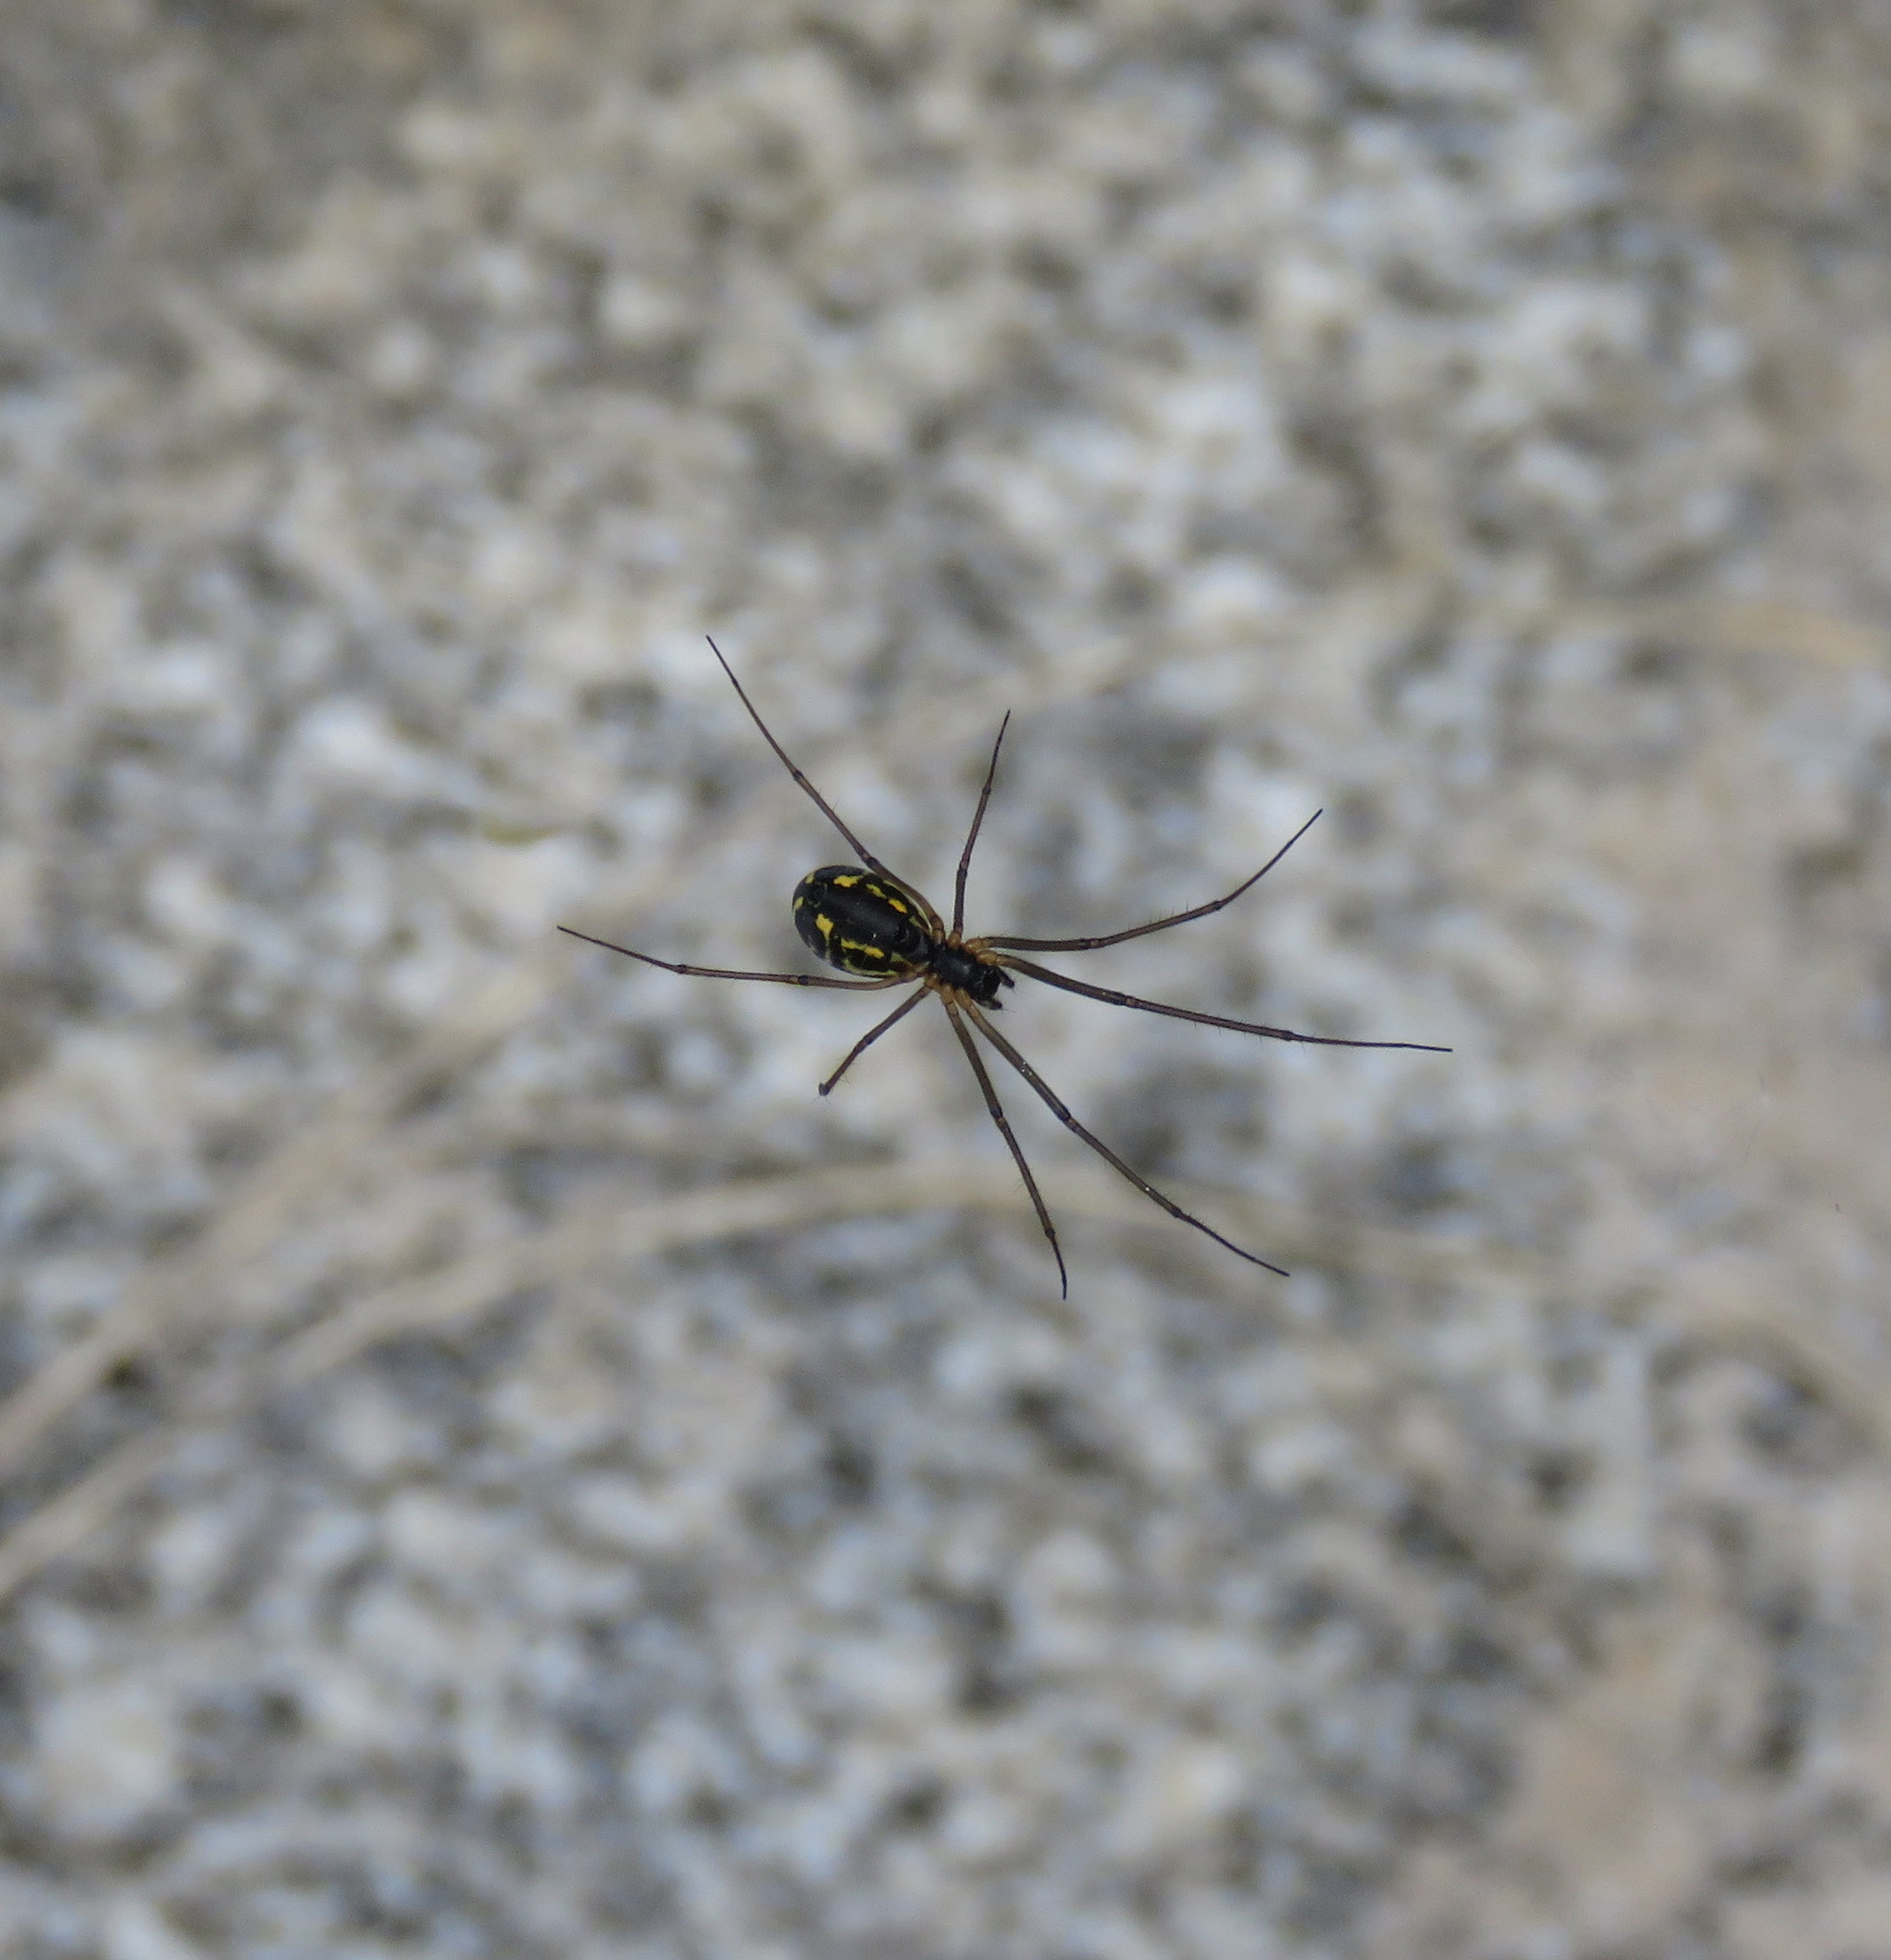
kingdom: Animalia
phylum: Arthropoda
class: Arachnida
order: Araneae
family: Linyphiidae
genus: Neriene
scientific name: Neriene radiata
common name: Filmy dome spider
